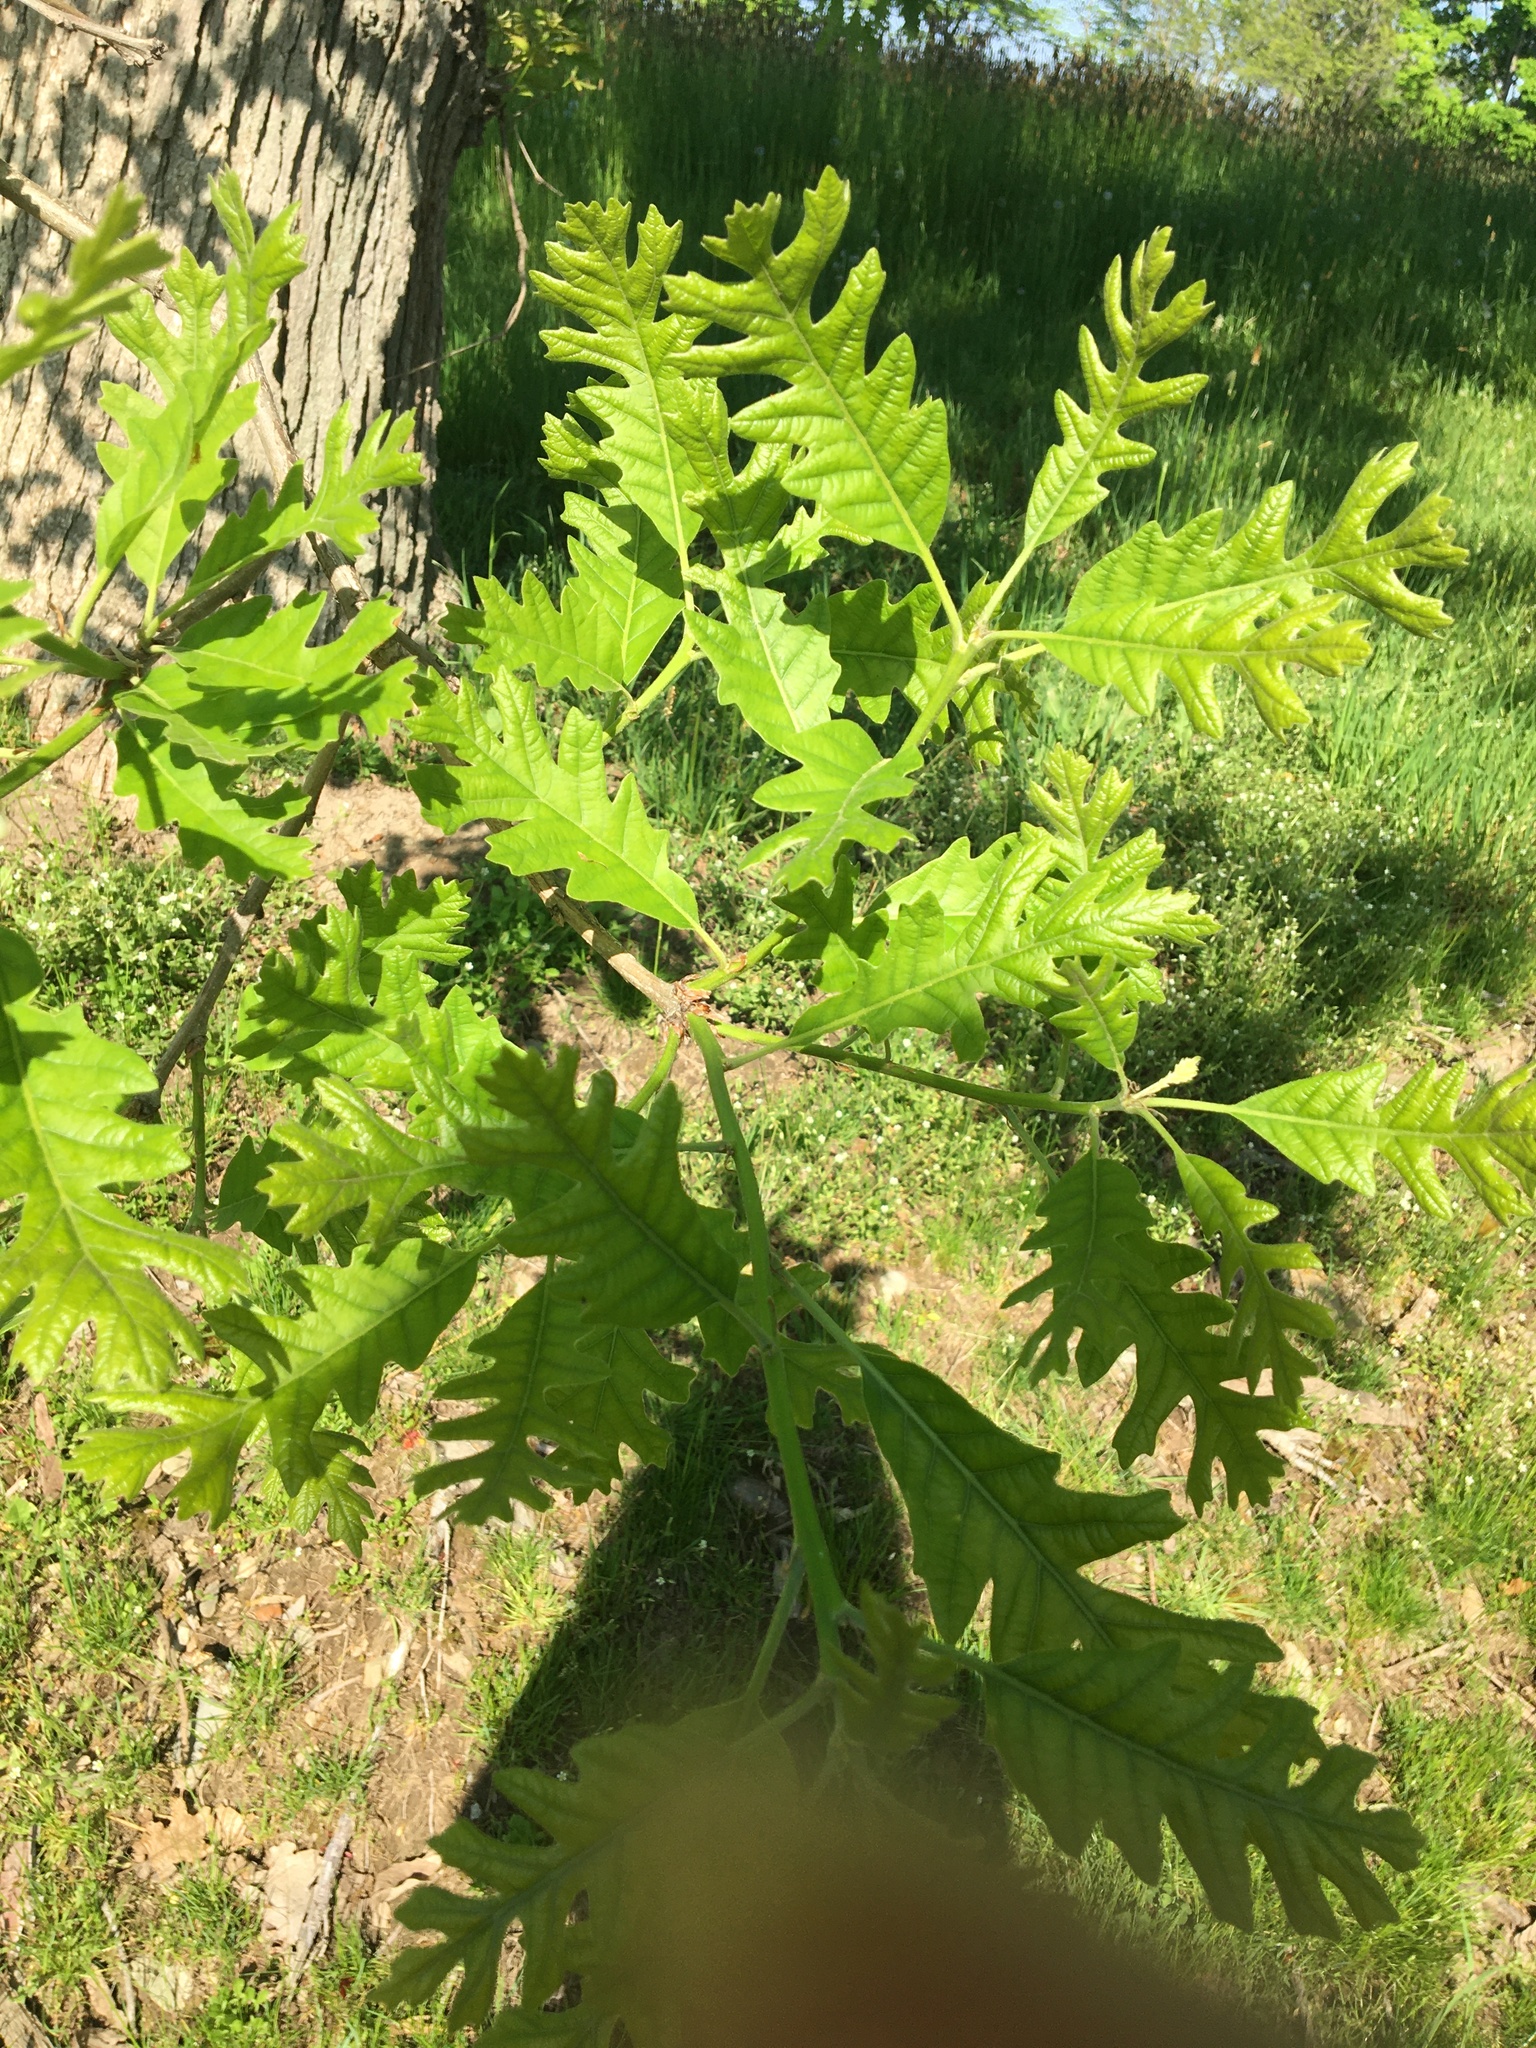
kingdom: Plantae
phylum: Tracheophyta
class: Magnoliopsida
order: Fagales
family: Fagaceae
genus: Quercus
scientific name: Quercus cerris
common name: Turkey oak
